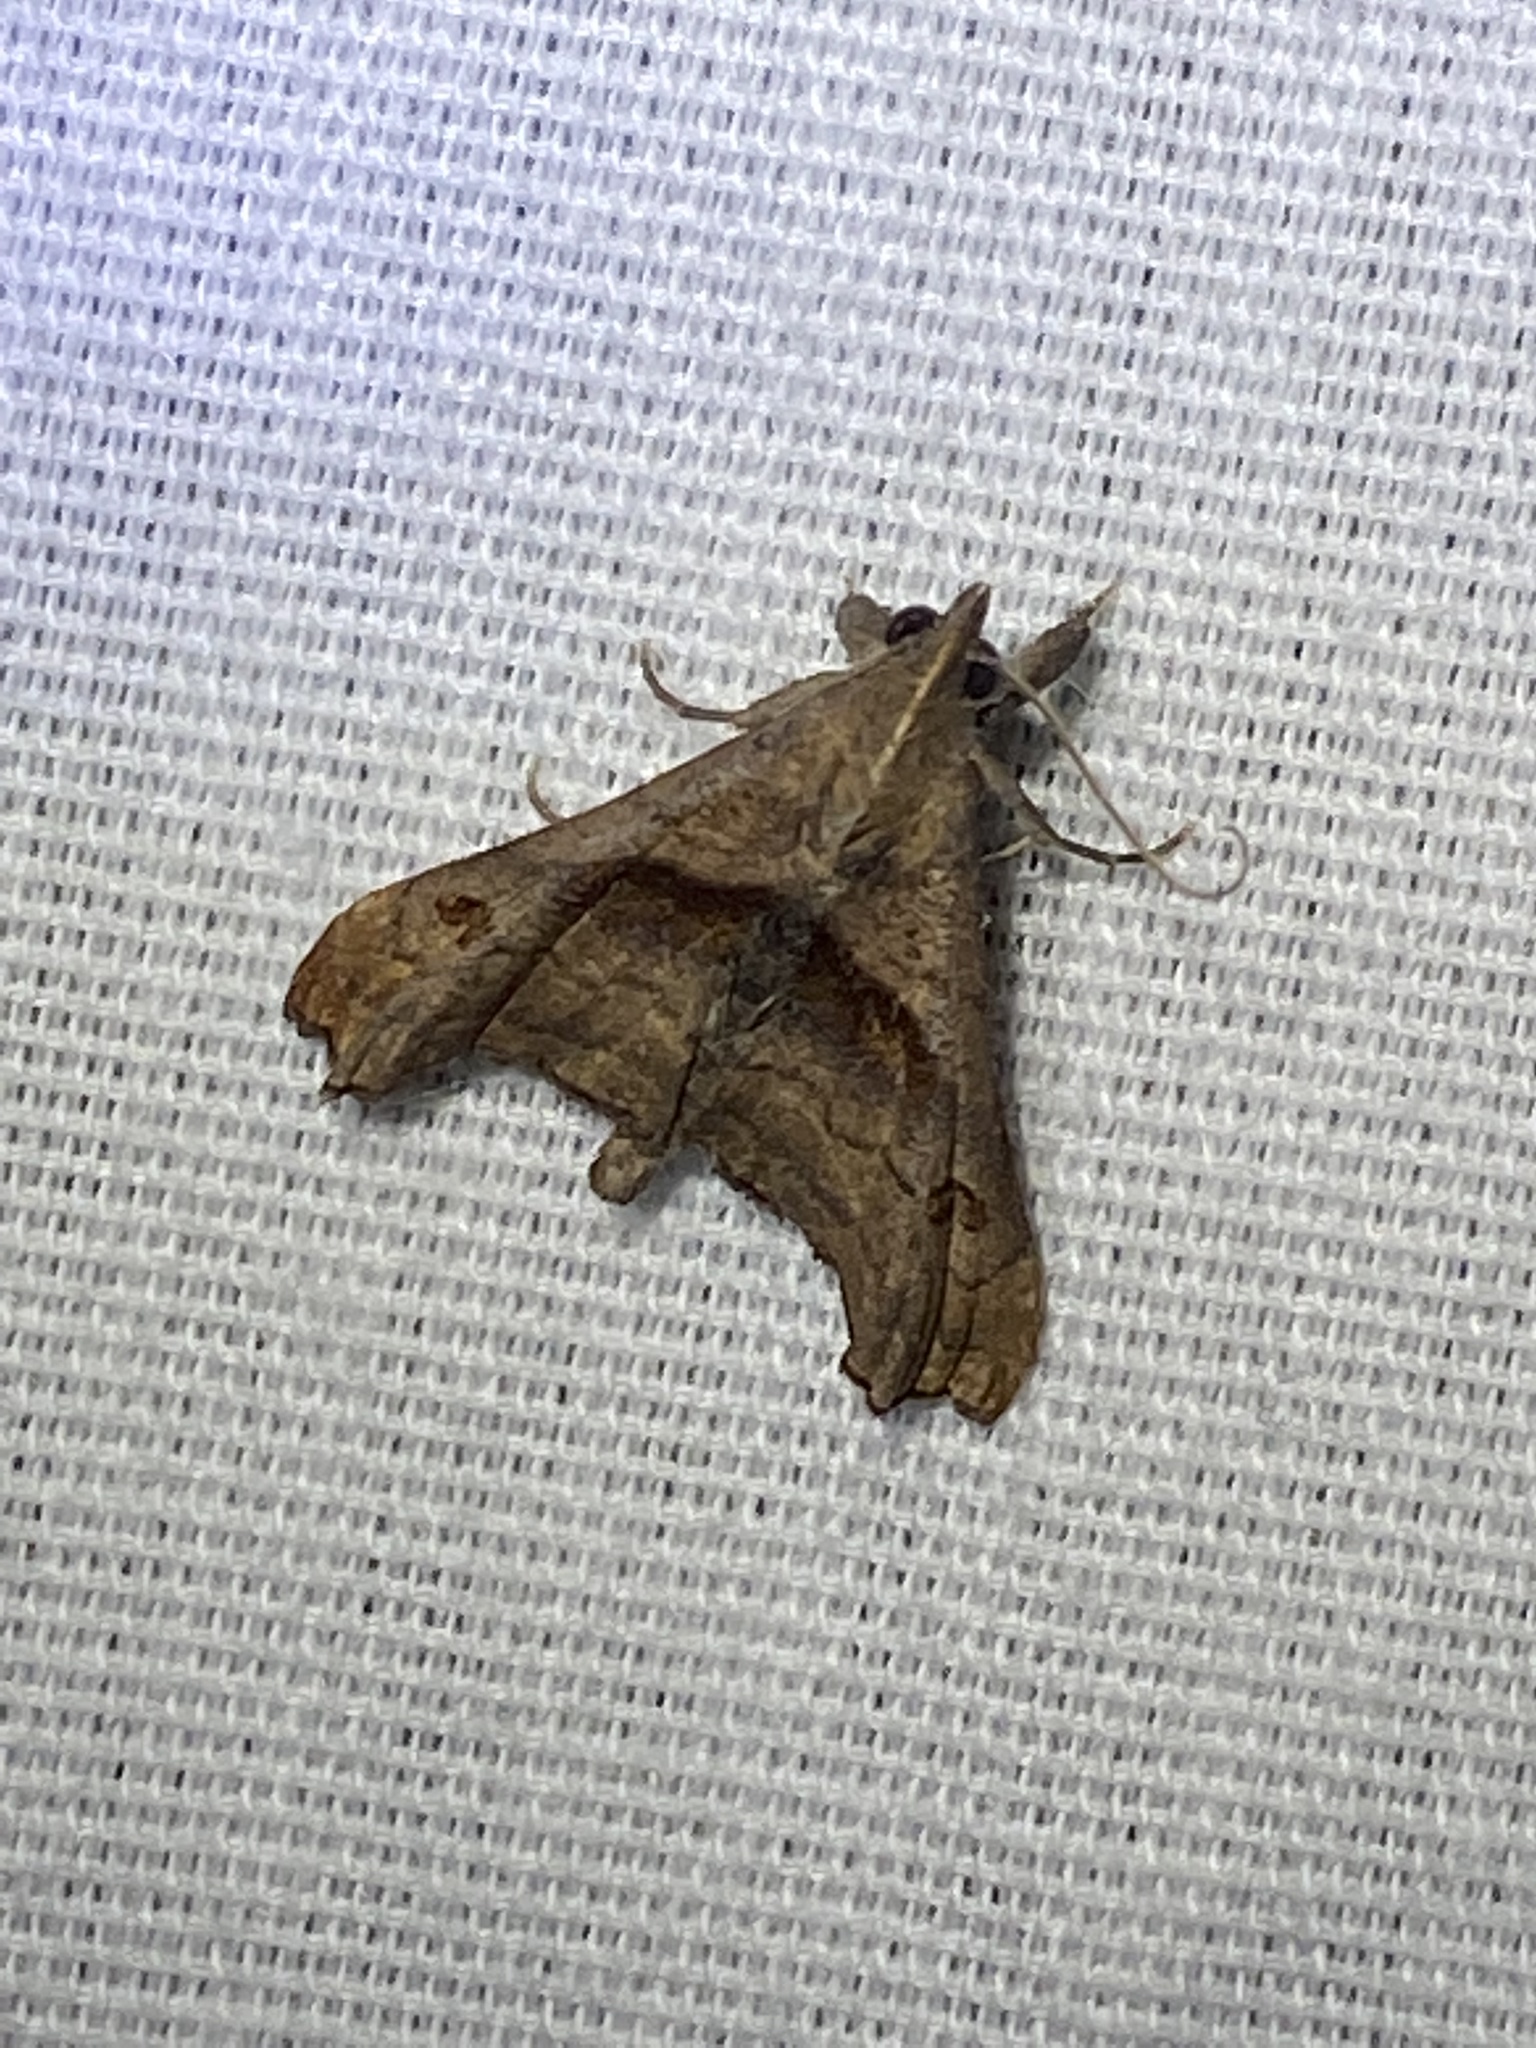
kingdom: Animalia
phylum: Arthropoda
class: Insecta
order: Lepidoptera
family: Erebidae
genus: Palthis
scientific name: Palthis angulalis
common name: Dark-spotted palthis moth
